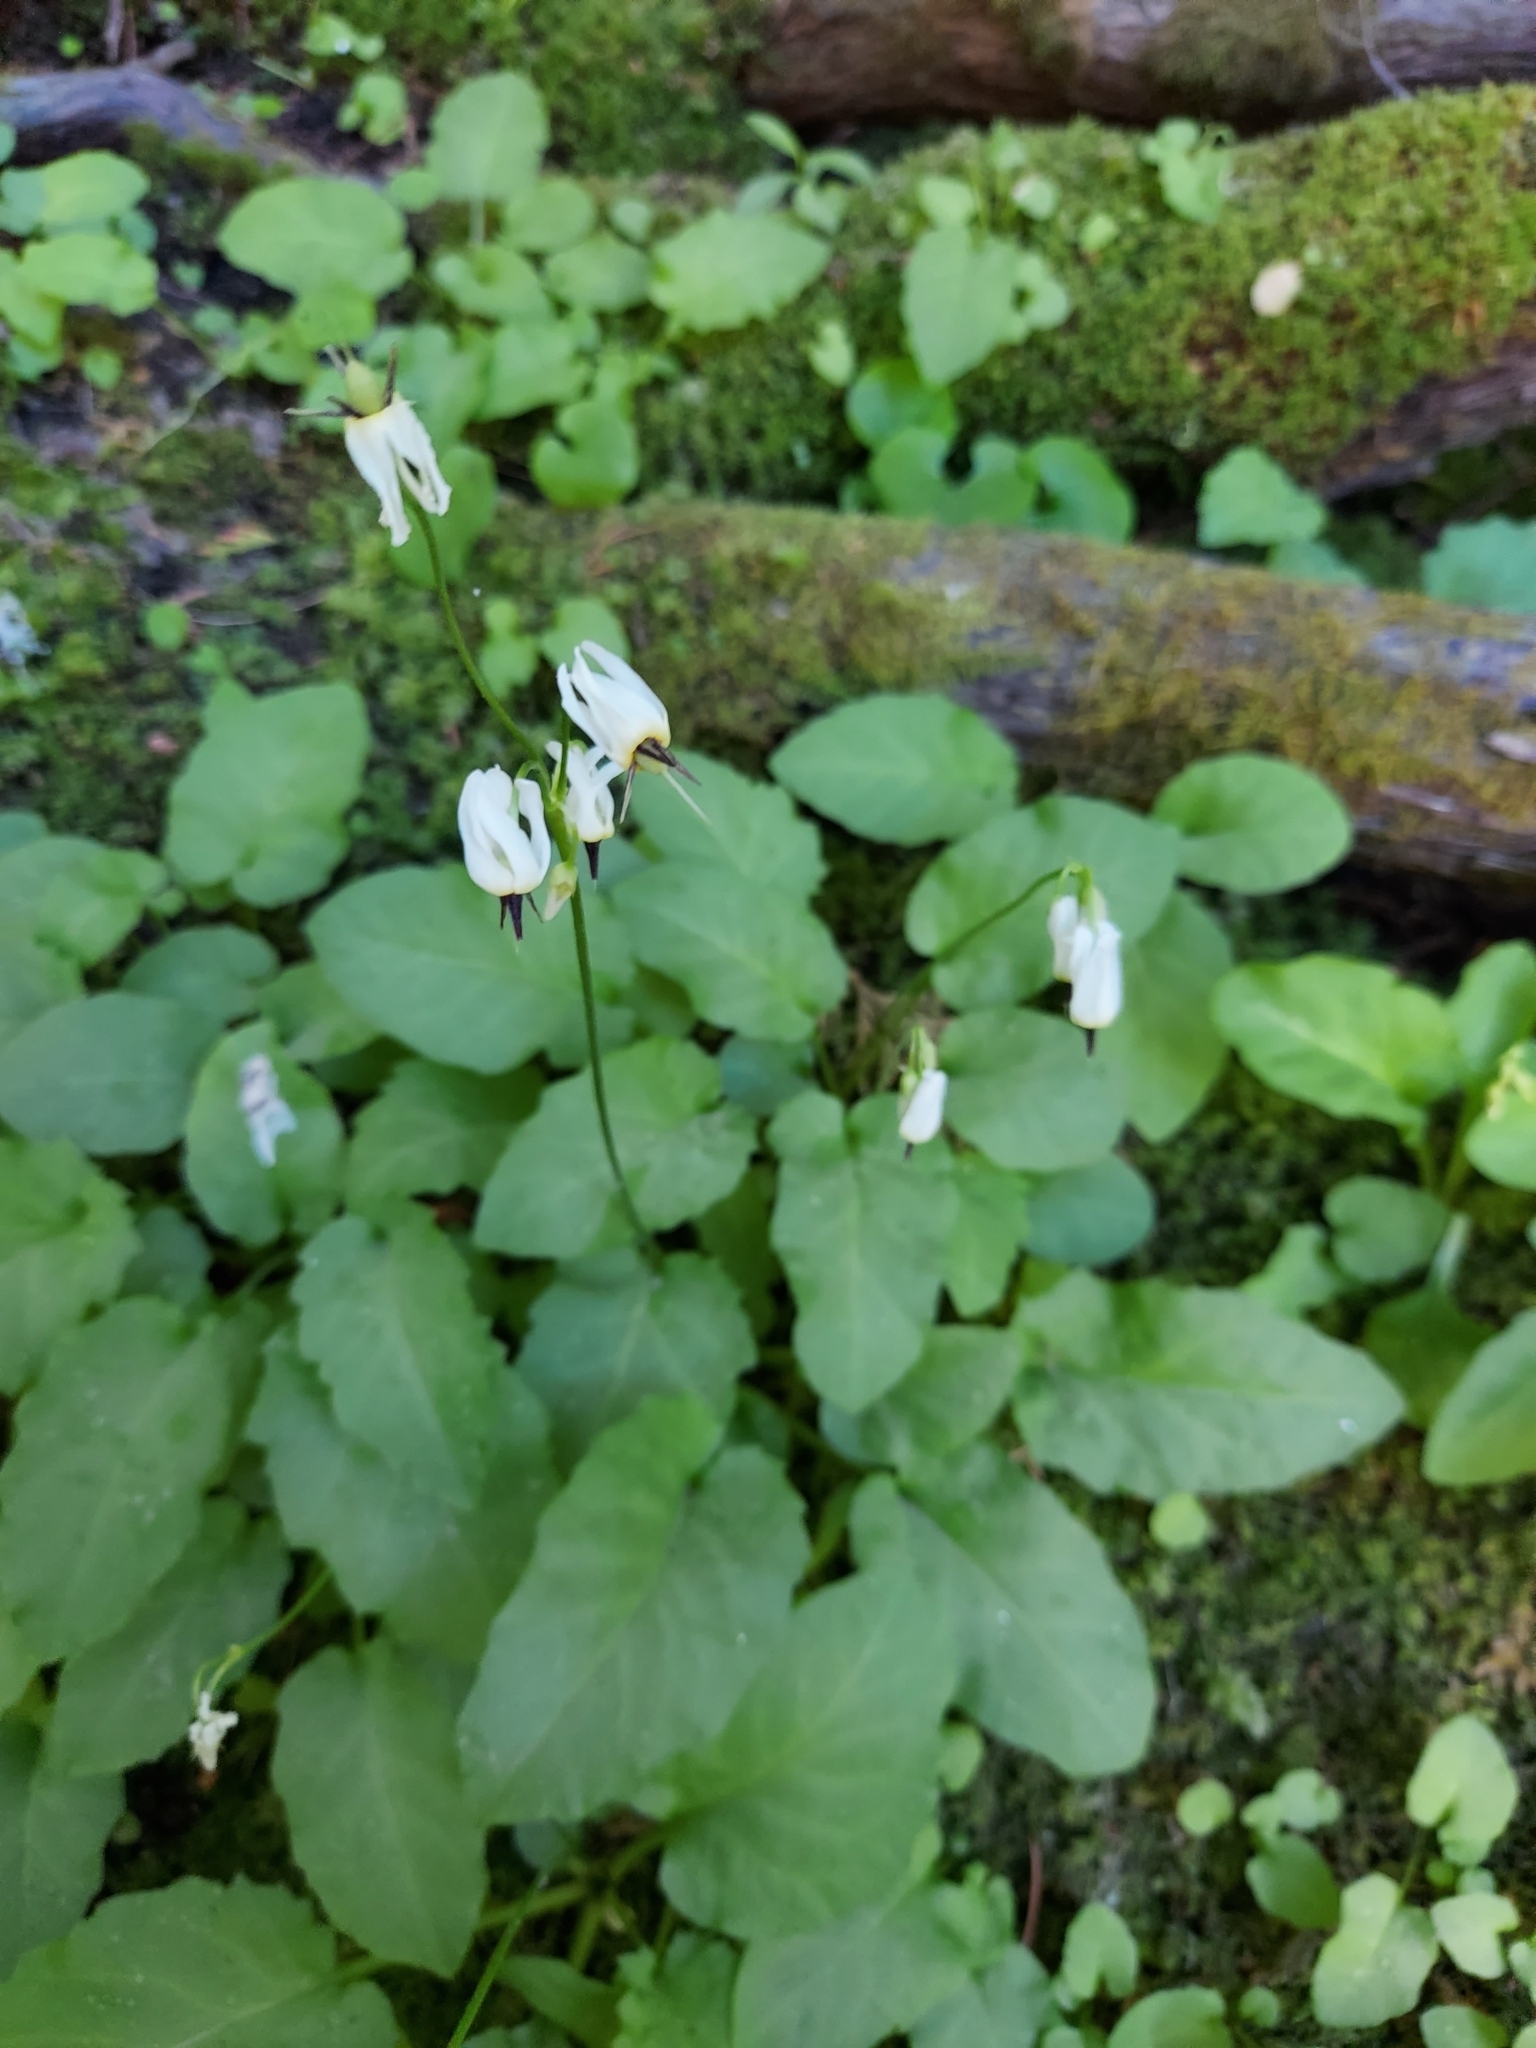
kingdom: Plantae
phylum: Tracheophyta
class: Magnoliopsida
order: Ericales
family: Primulaceae
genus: Dodecatheon
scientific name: Dodecatheon dentatum
